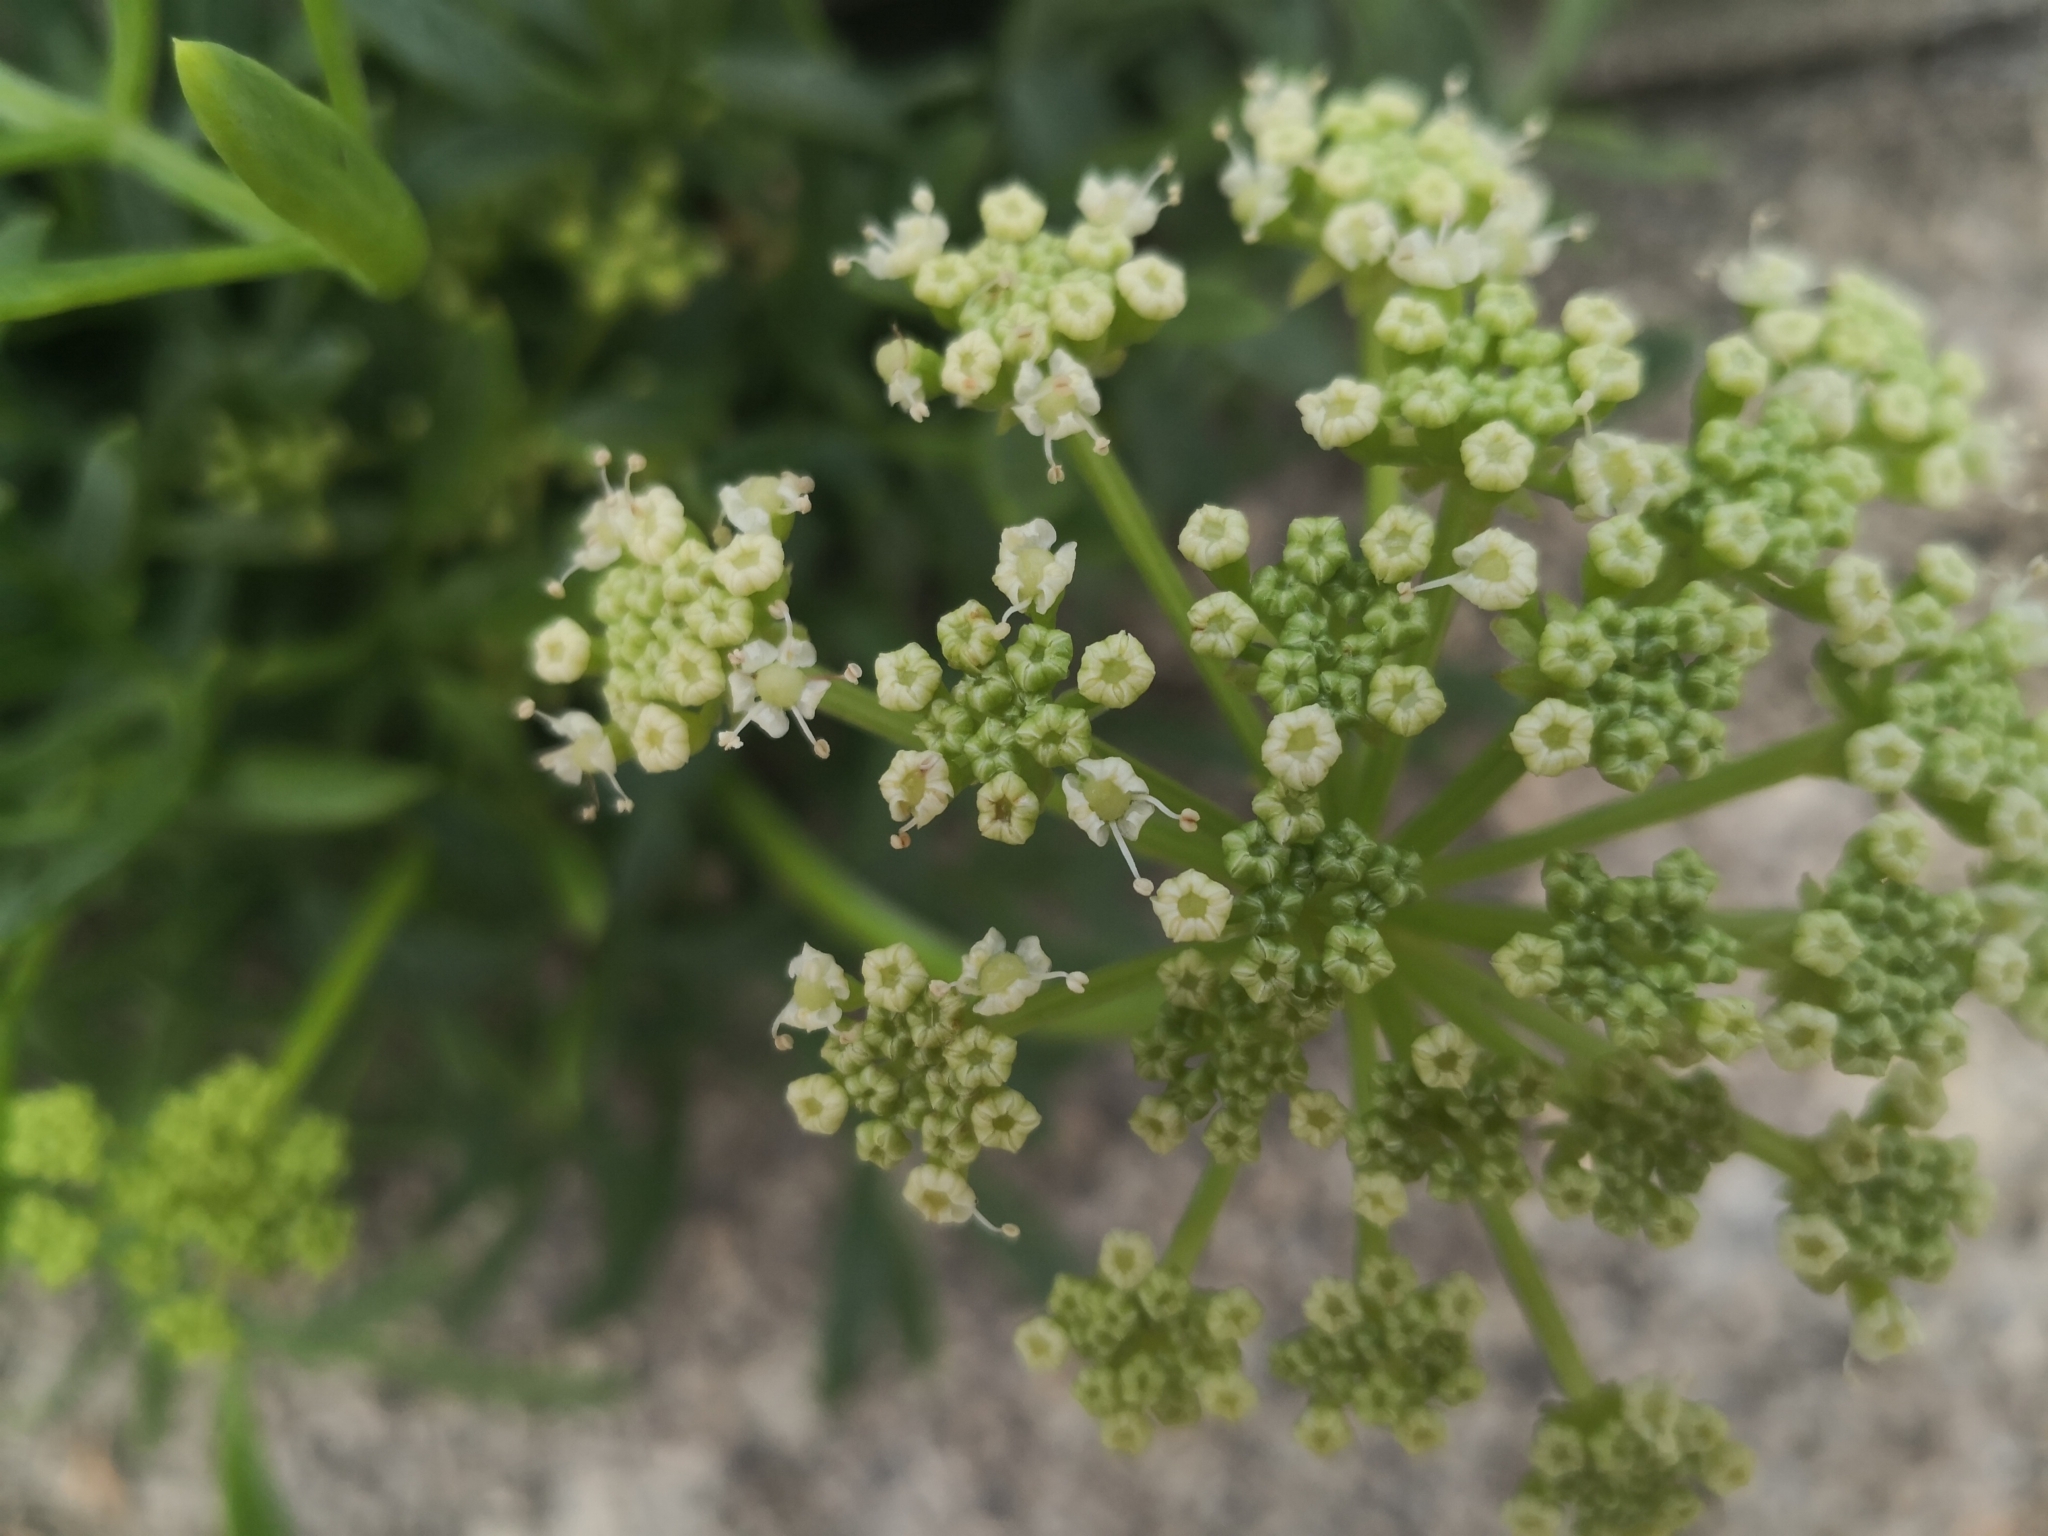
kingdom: Plantae
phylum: Tracheophyta
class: Magnoliopsida
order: Apiales
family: Apiaceae
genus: Crithmum
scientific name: Crithmum maritimum
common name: Rock samphire
